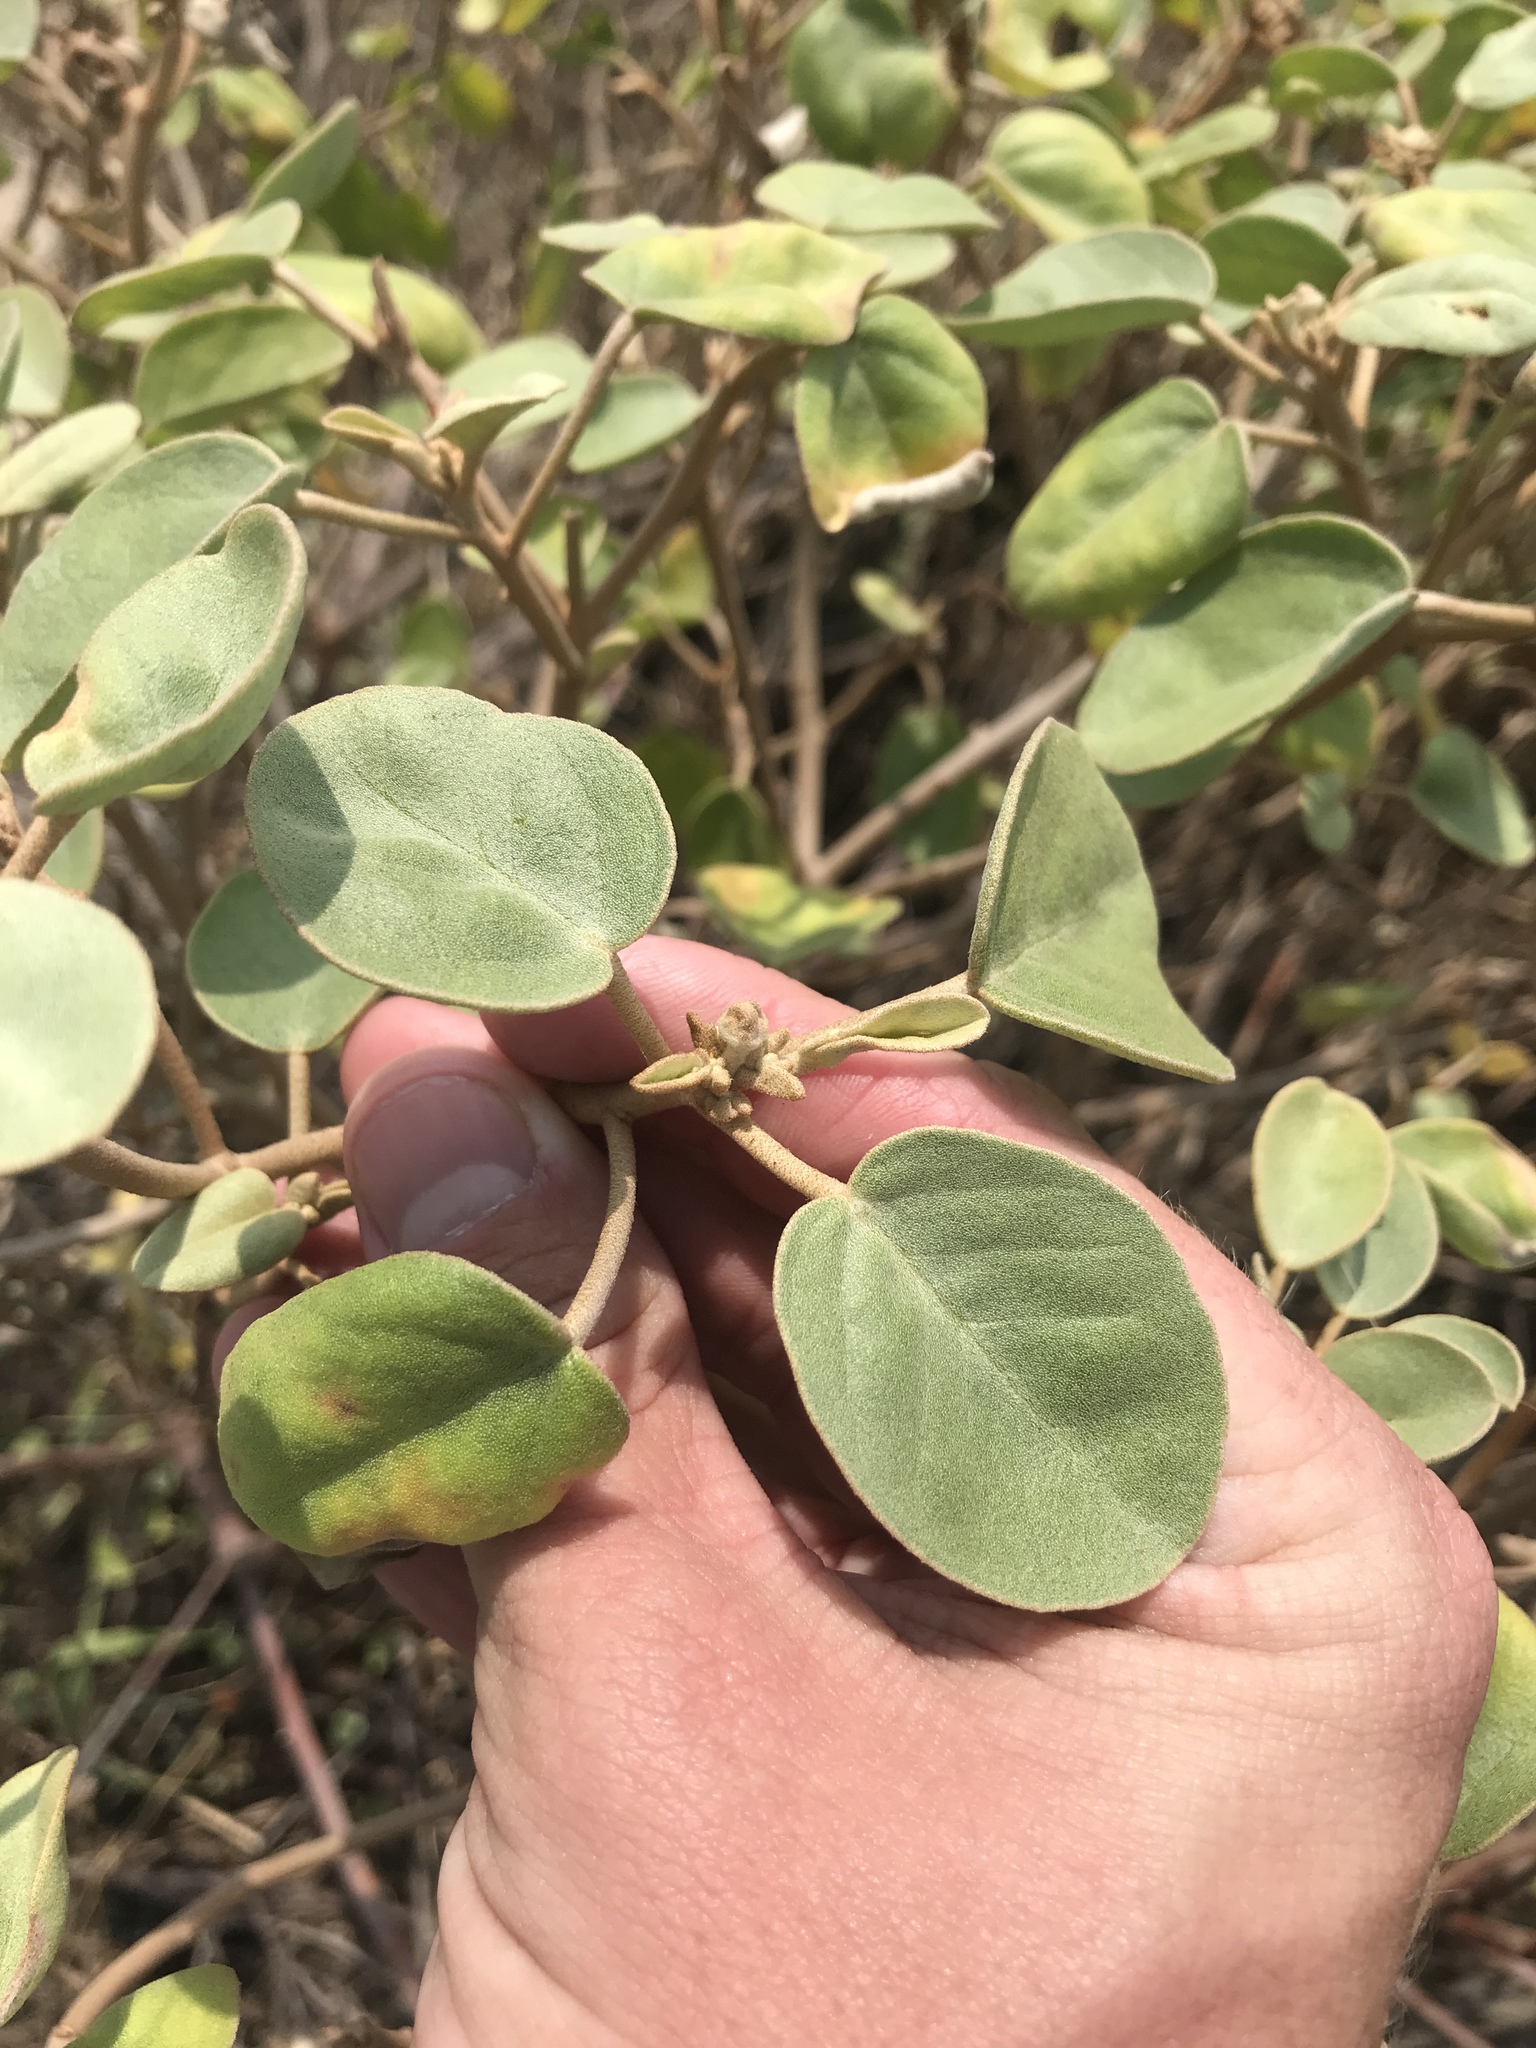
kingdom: Plantae
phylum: Tracheophyta
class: Magnoliopsida
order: Malpighiales
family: Euphorbiaceae
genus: Croton
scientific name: Croton punctatus
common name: Beach-tea
